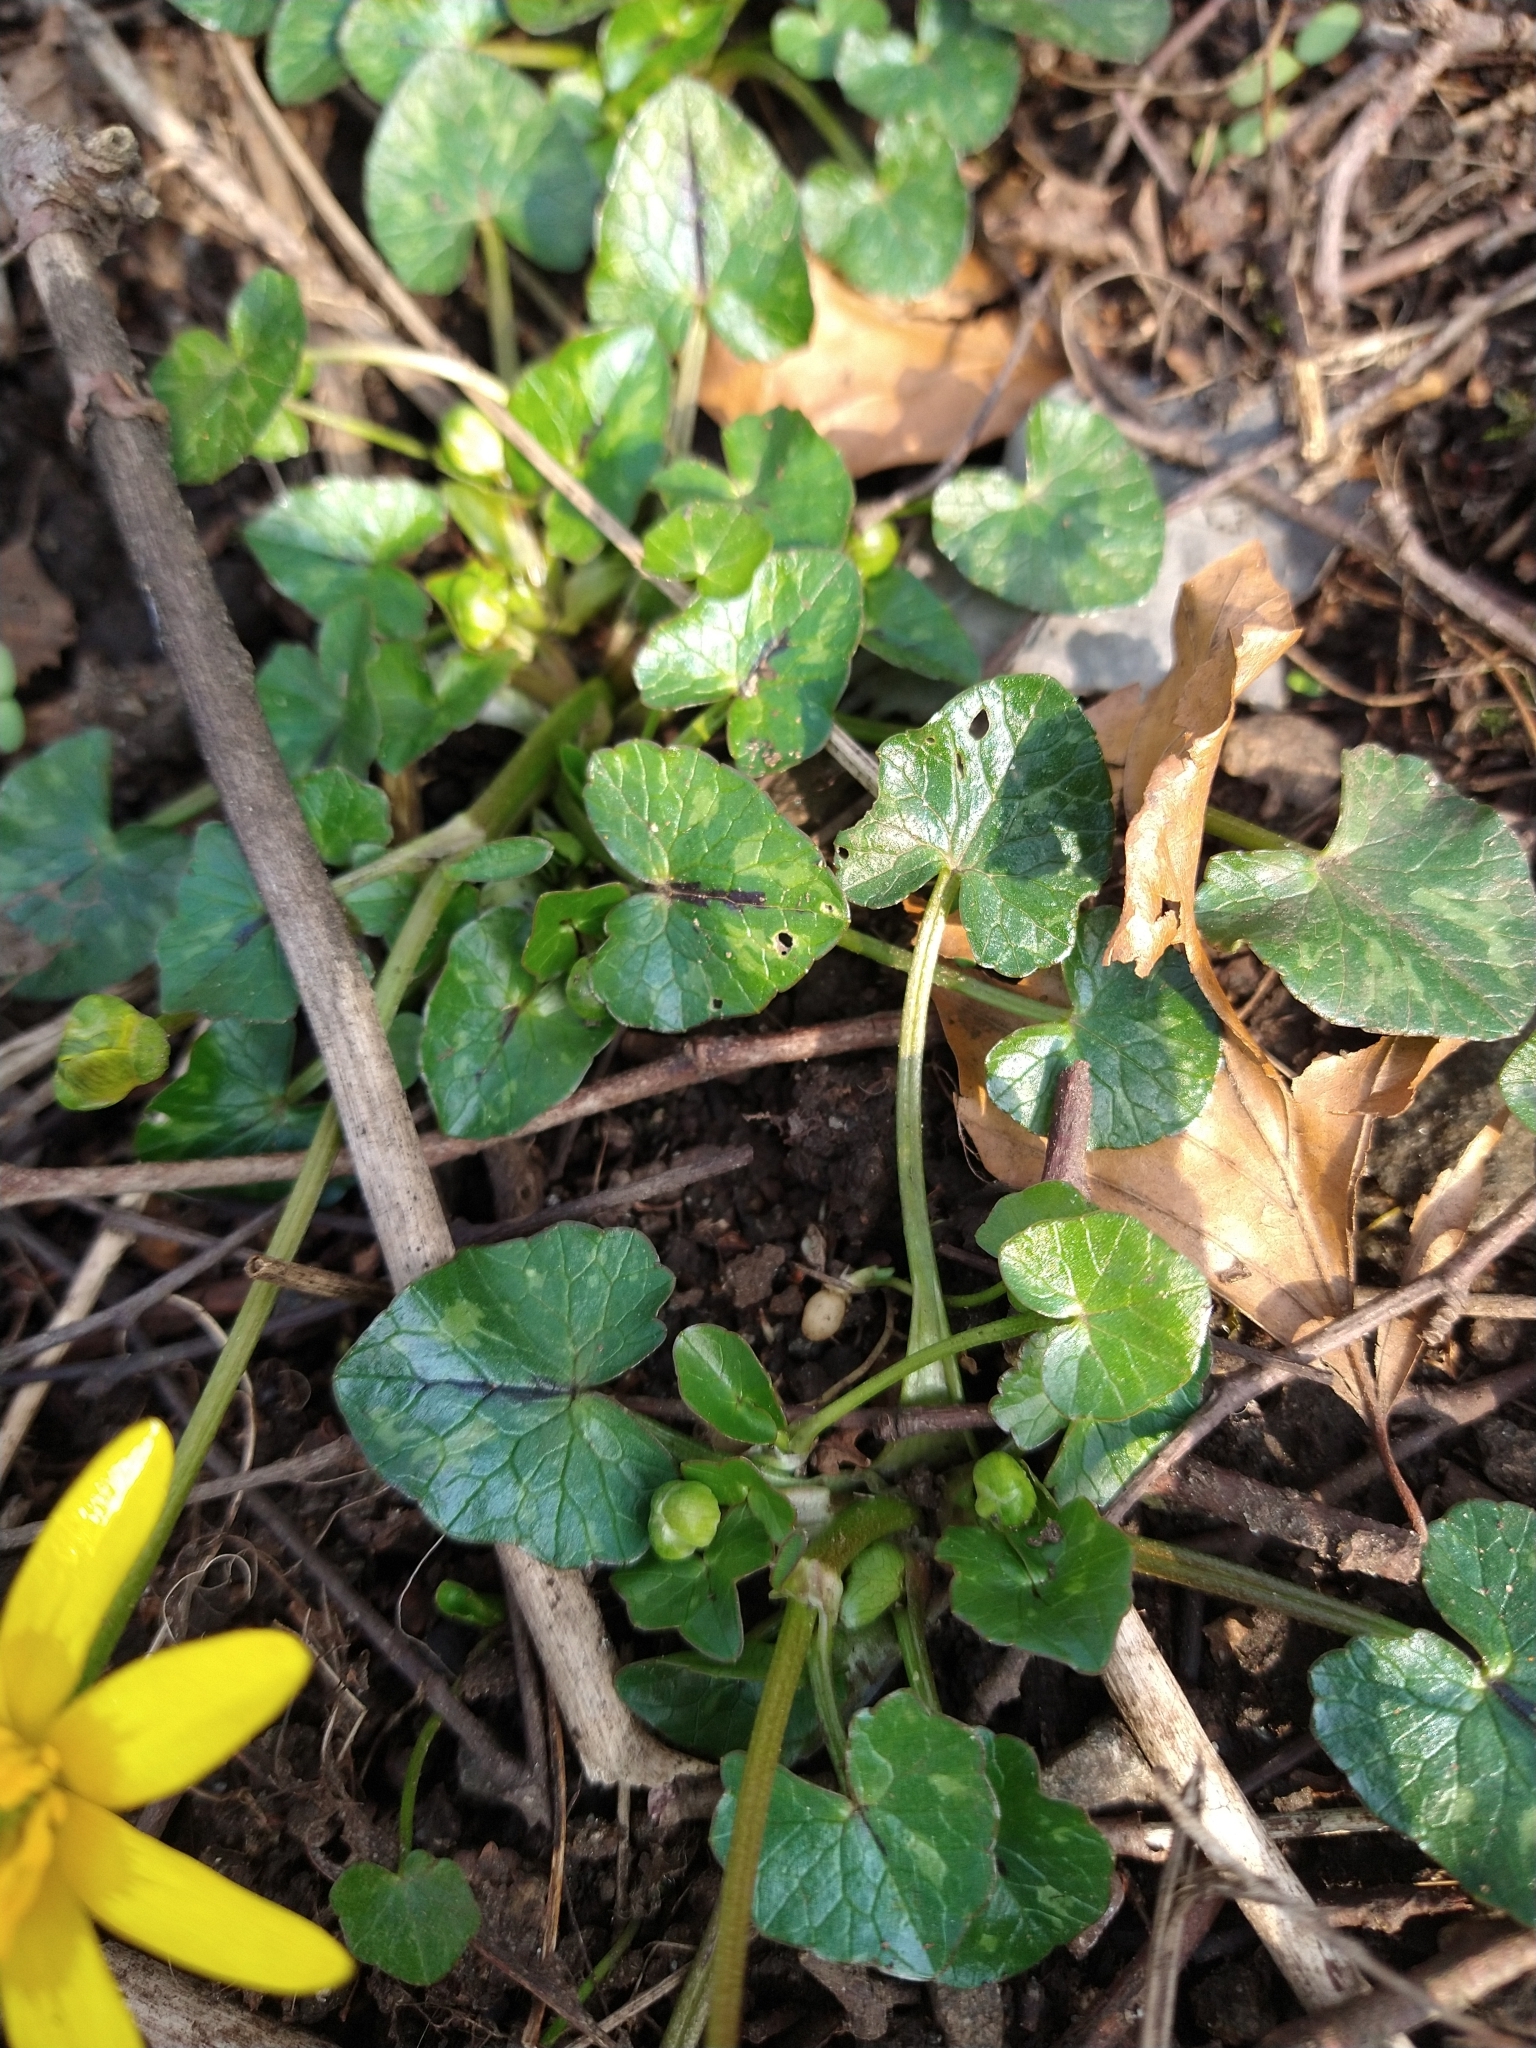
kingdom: Plantae
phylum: Tracheophyta
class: Magnoliopsida
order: Ranunculales
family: Ranunculaceae
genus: Ficaria
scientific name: Ficaria verna
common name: Lesser celandine
